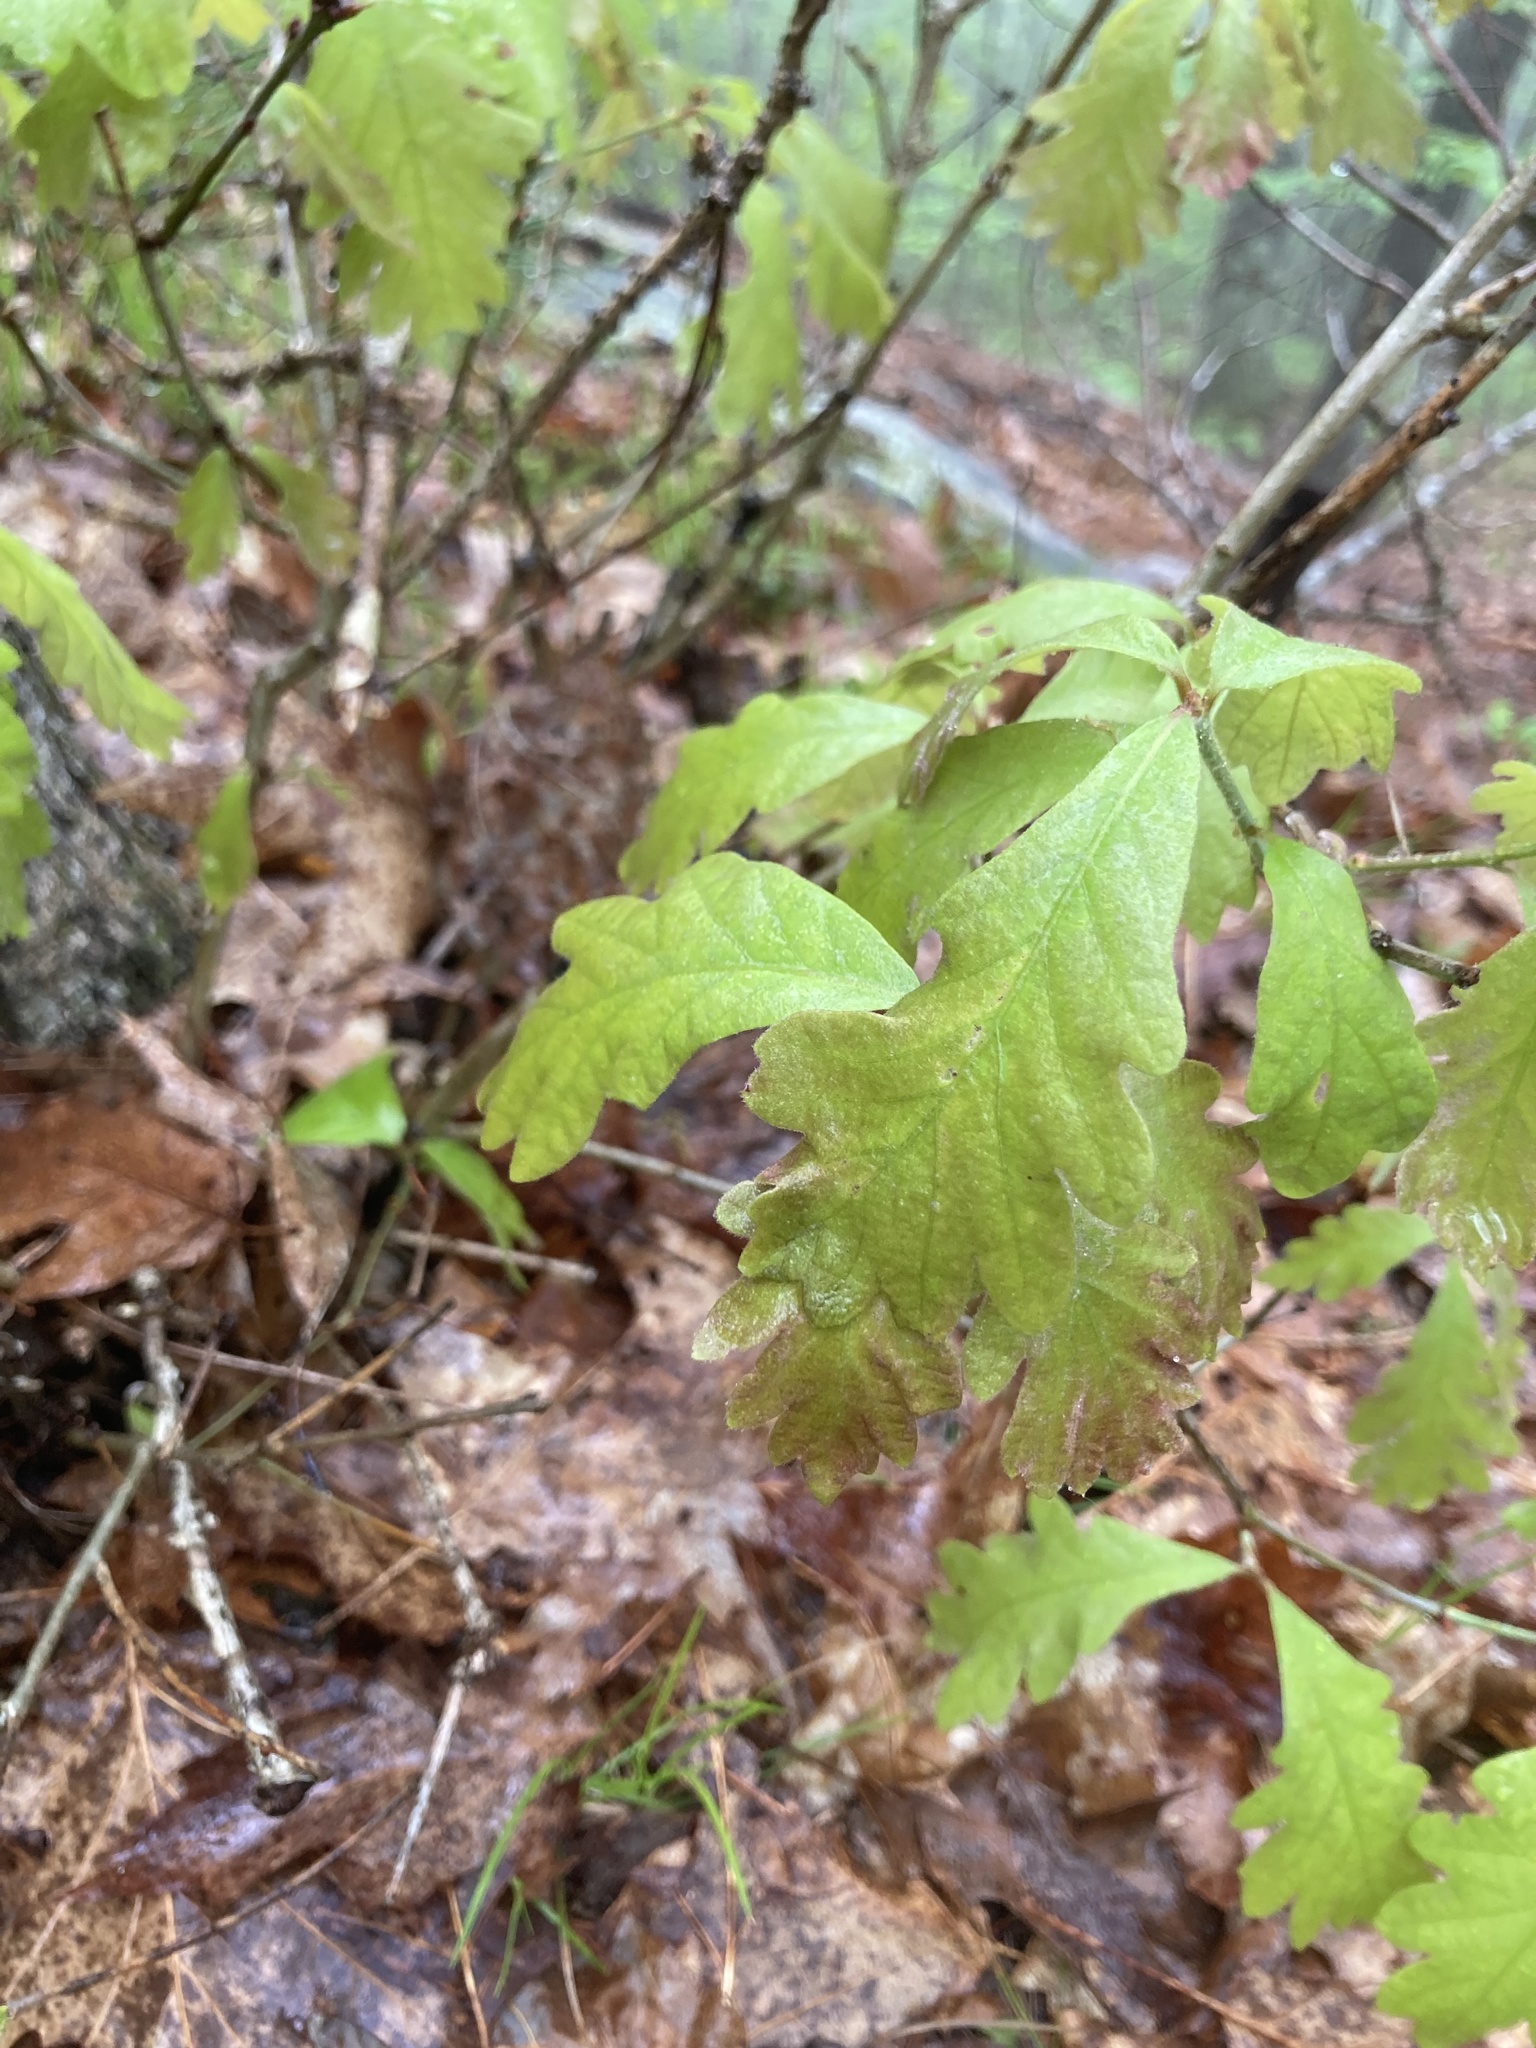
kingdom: Plantae
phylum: Tracheophyta
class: Magnoliopsida
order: Fagales
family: Fagaceae
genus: Quercus
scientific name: Quercus alba
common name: White oak
